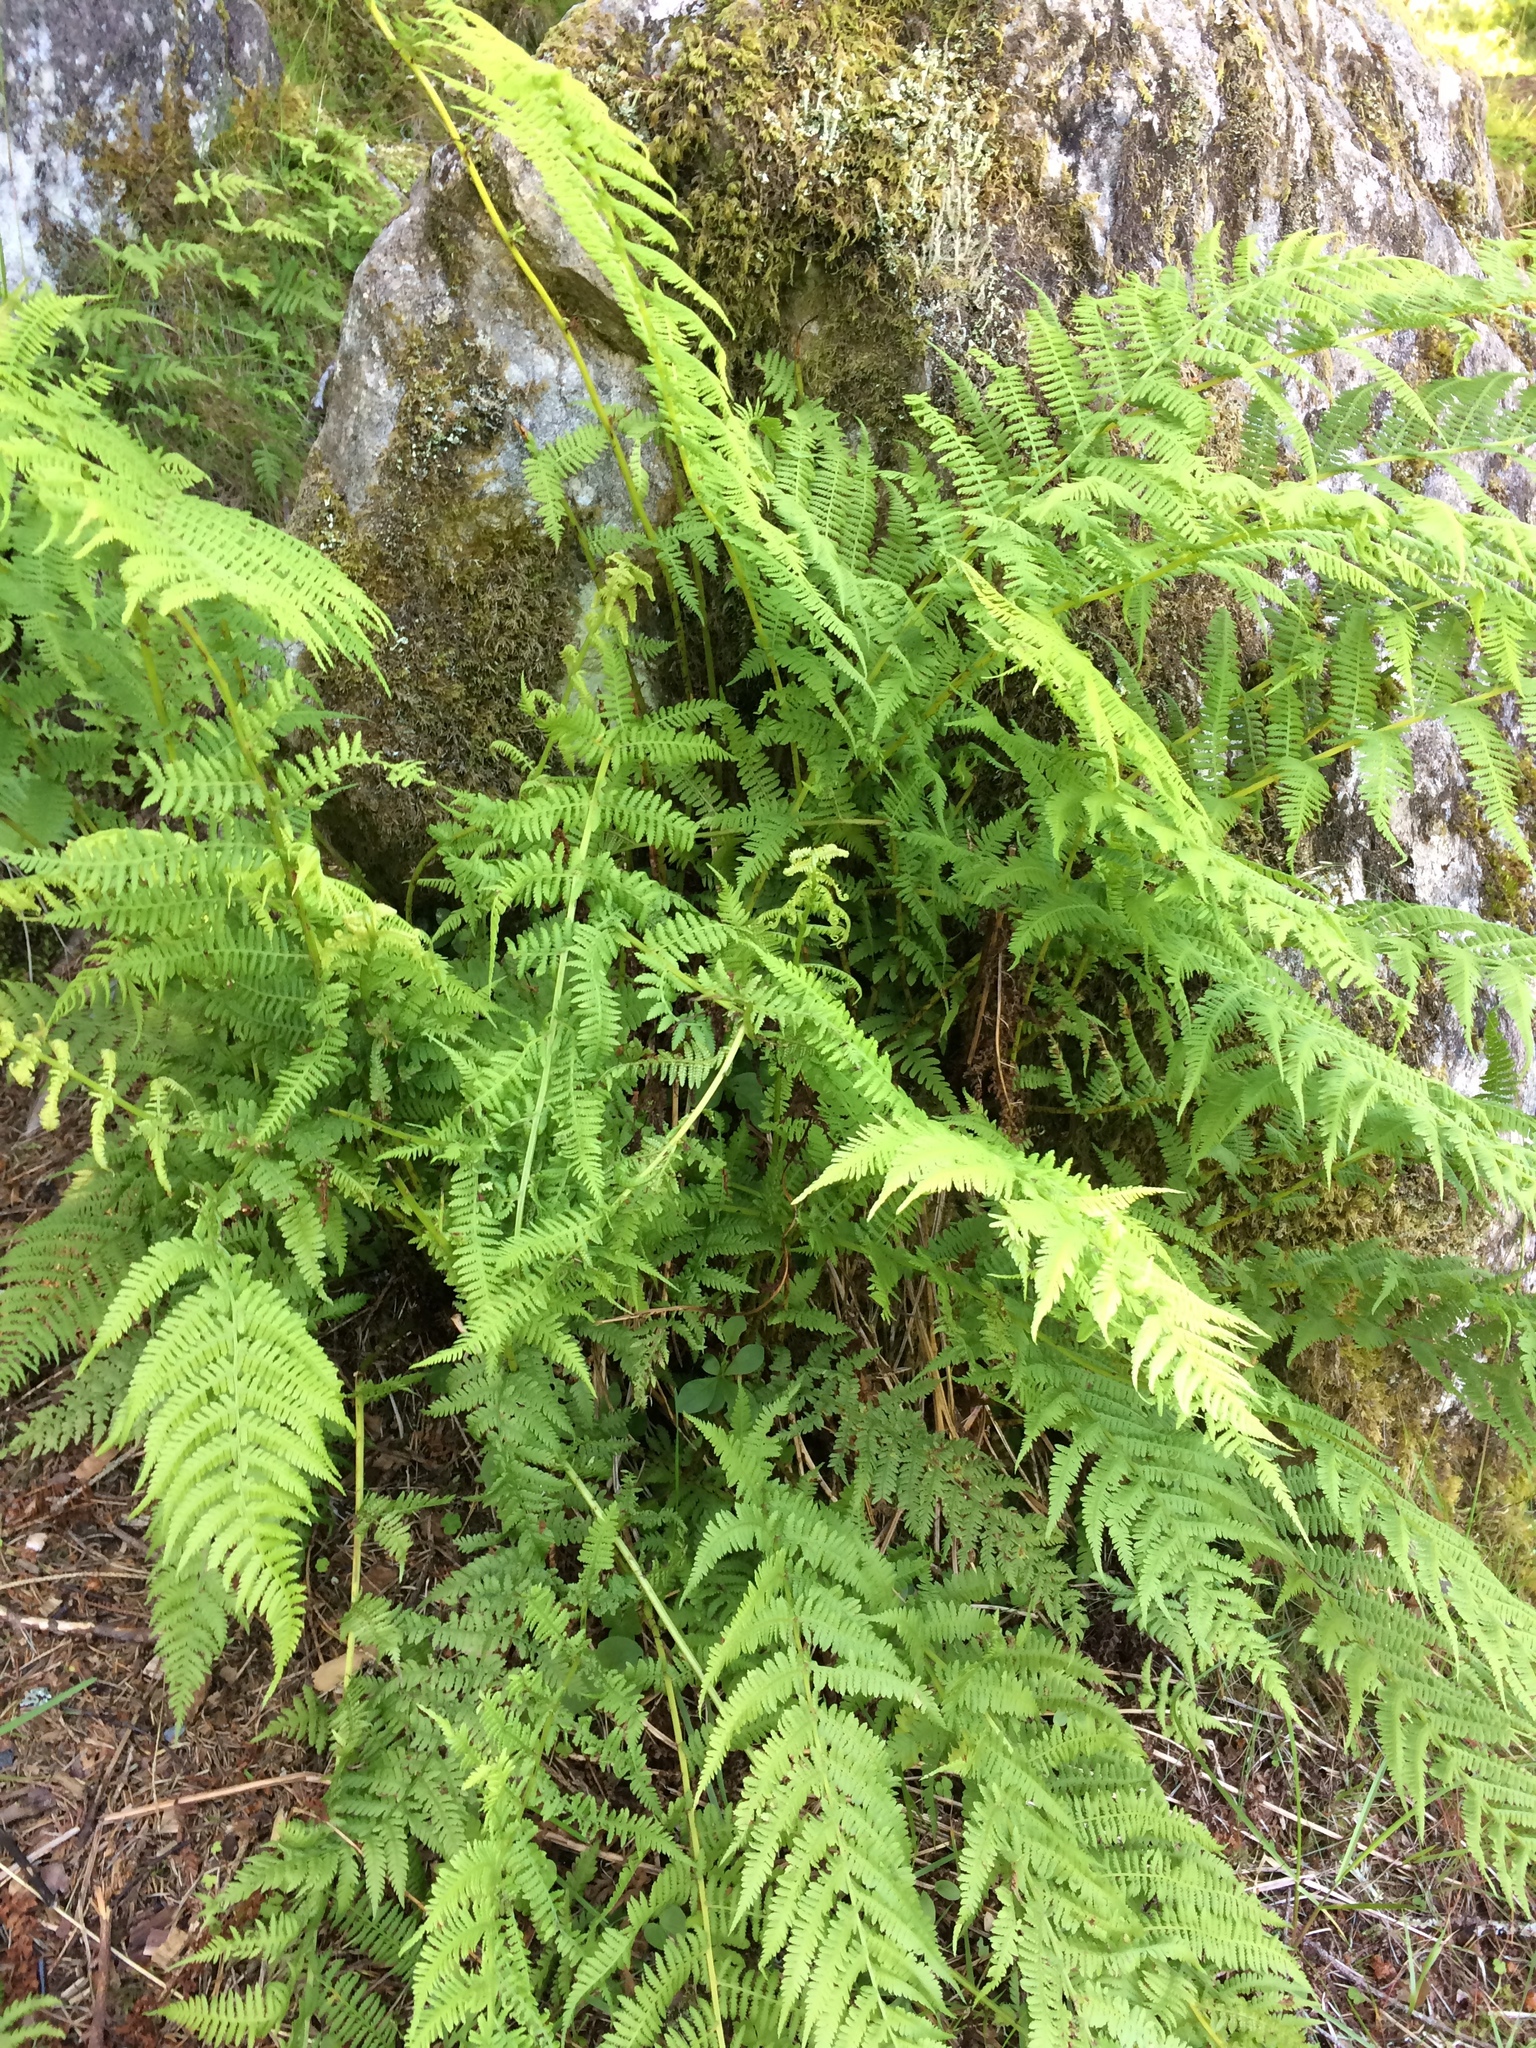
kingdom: Plantae
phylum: Tracheophyta
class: Polypodiopsida
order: Polypodiales
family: Athyriaceae
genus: Athyrium
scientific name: Athyrium filix-femina
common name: Lady fern
